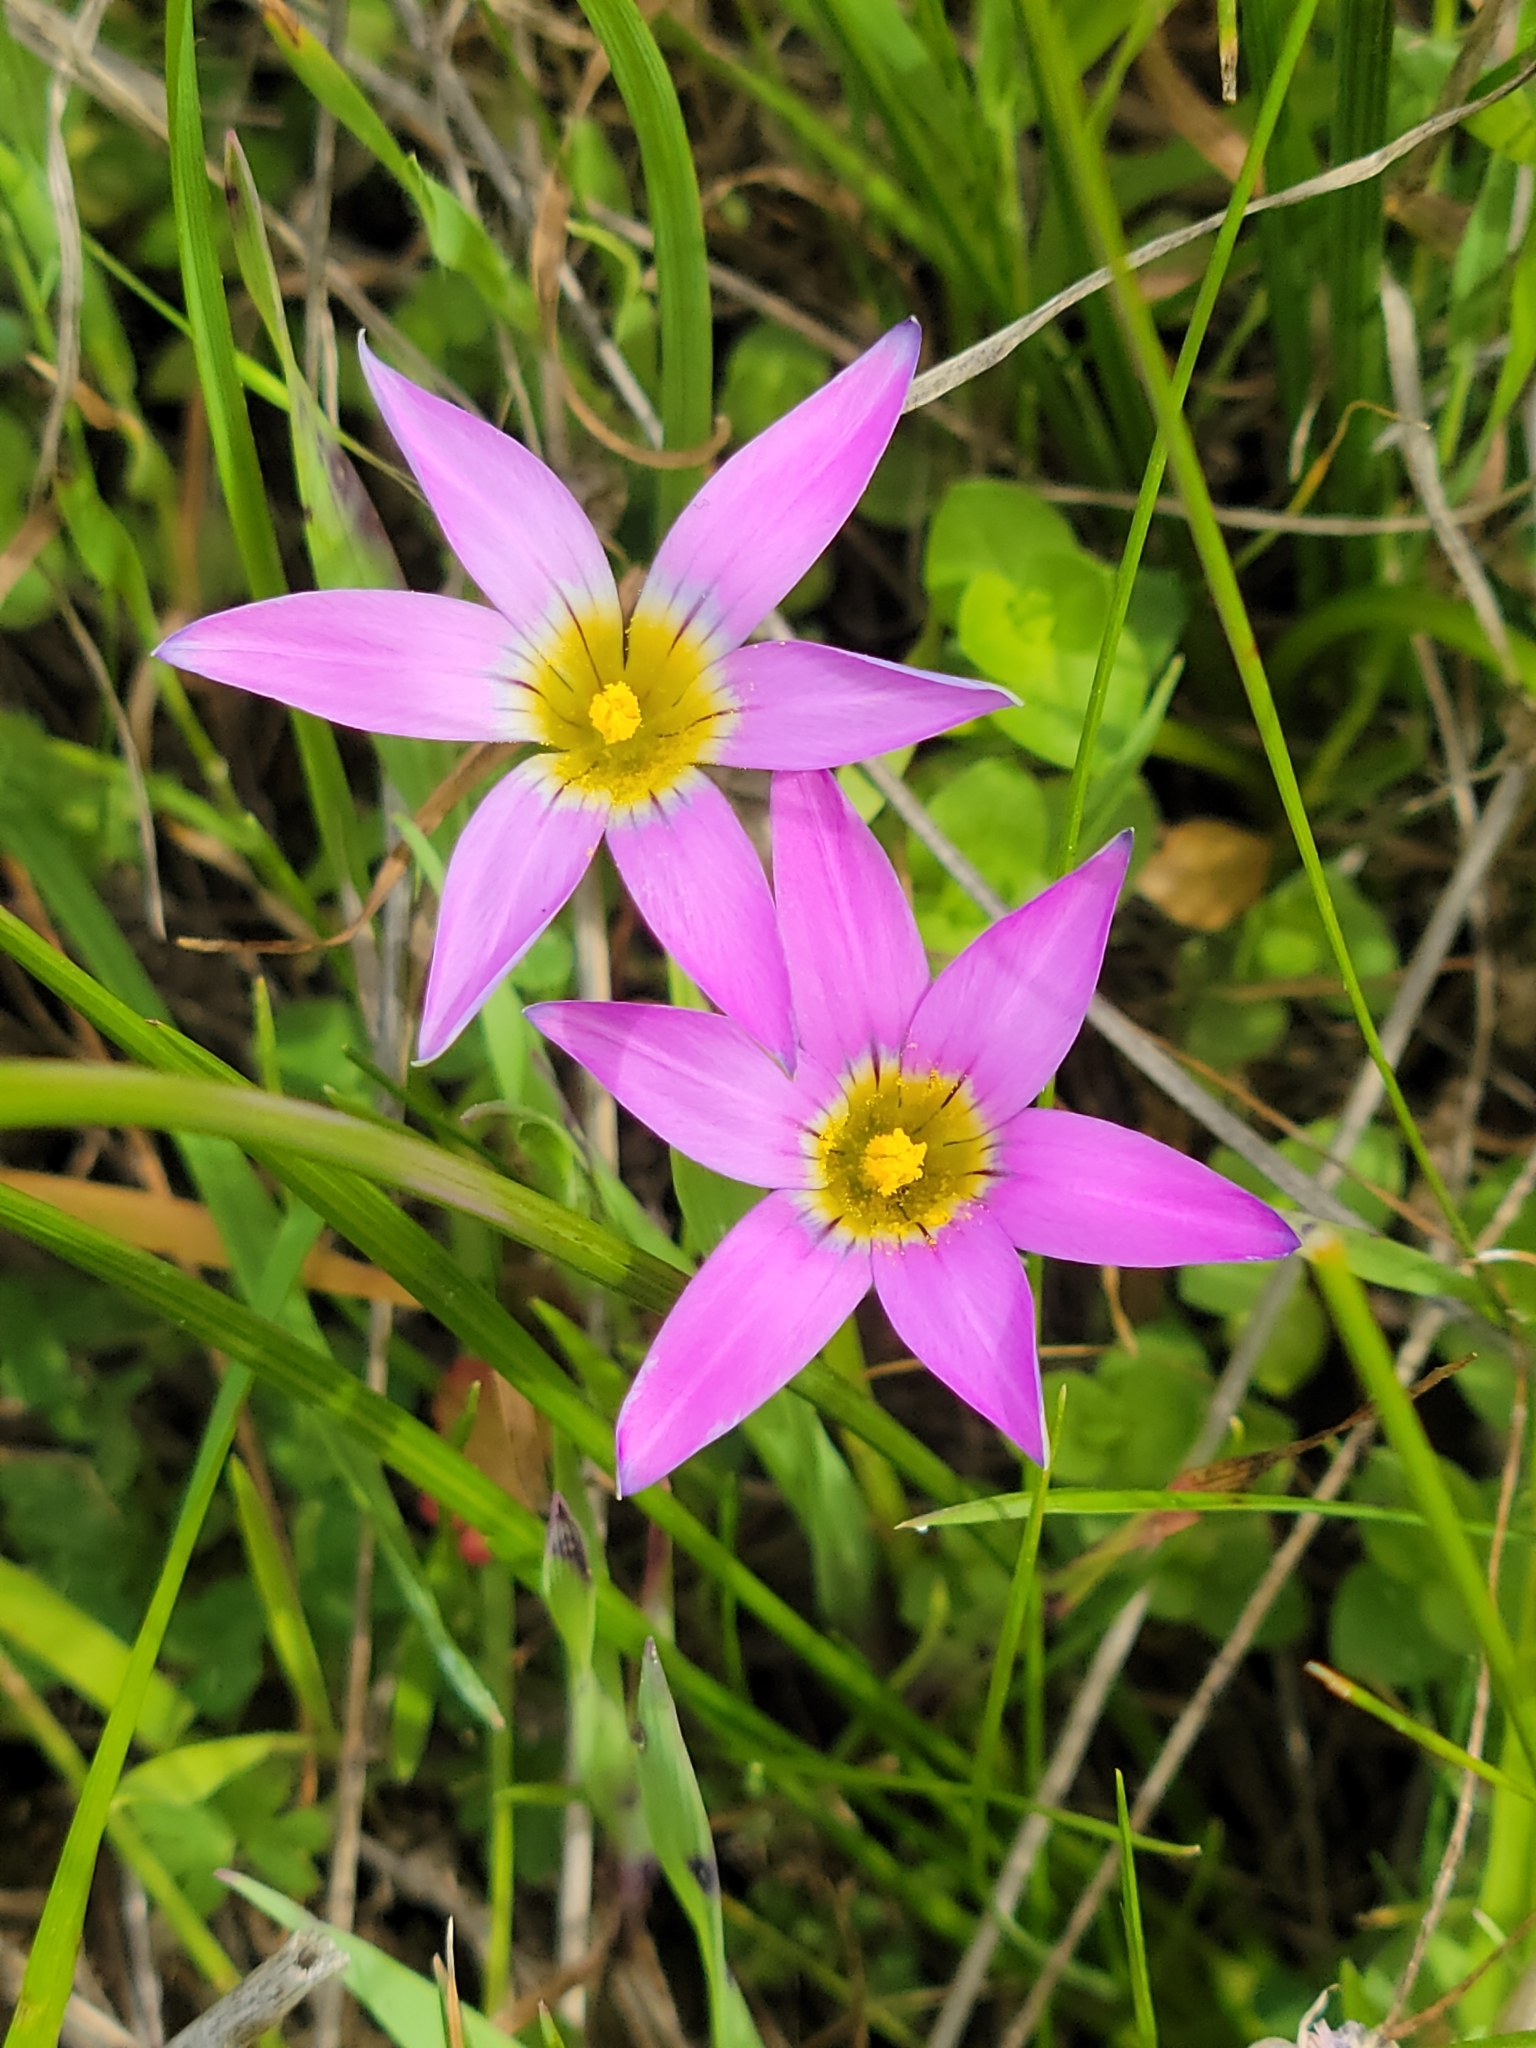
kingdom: Plantae
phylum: Tracheophyta
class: Liliopsida
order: Asparagales
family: Iridaceae
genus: Romulea
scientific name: Romulea rosea
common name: Oniongrass
